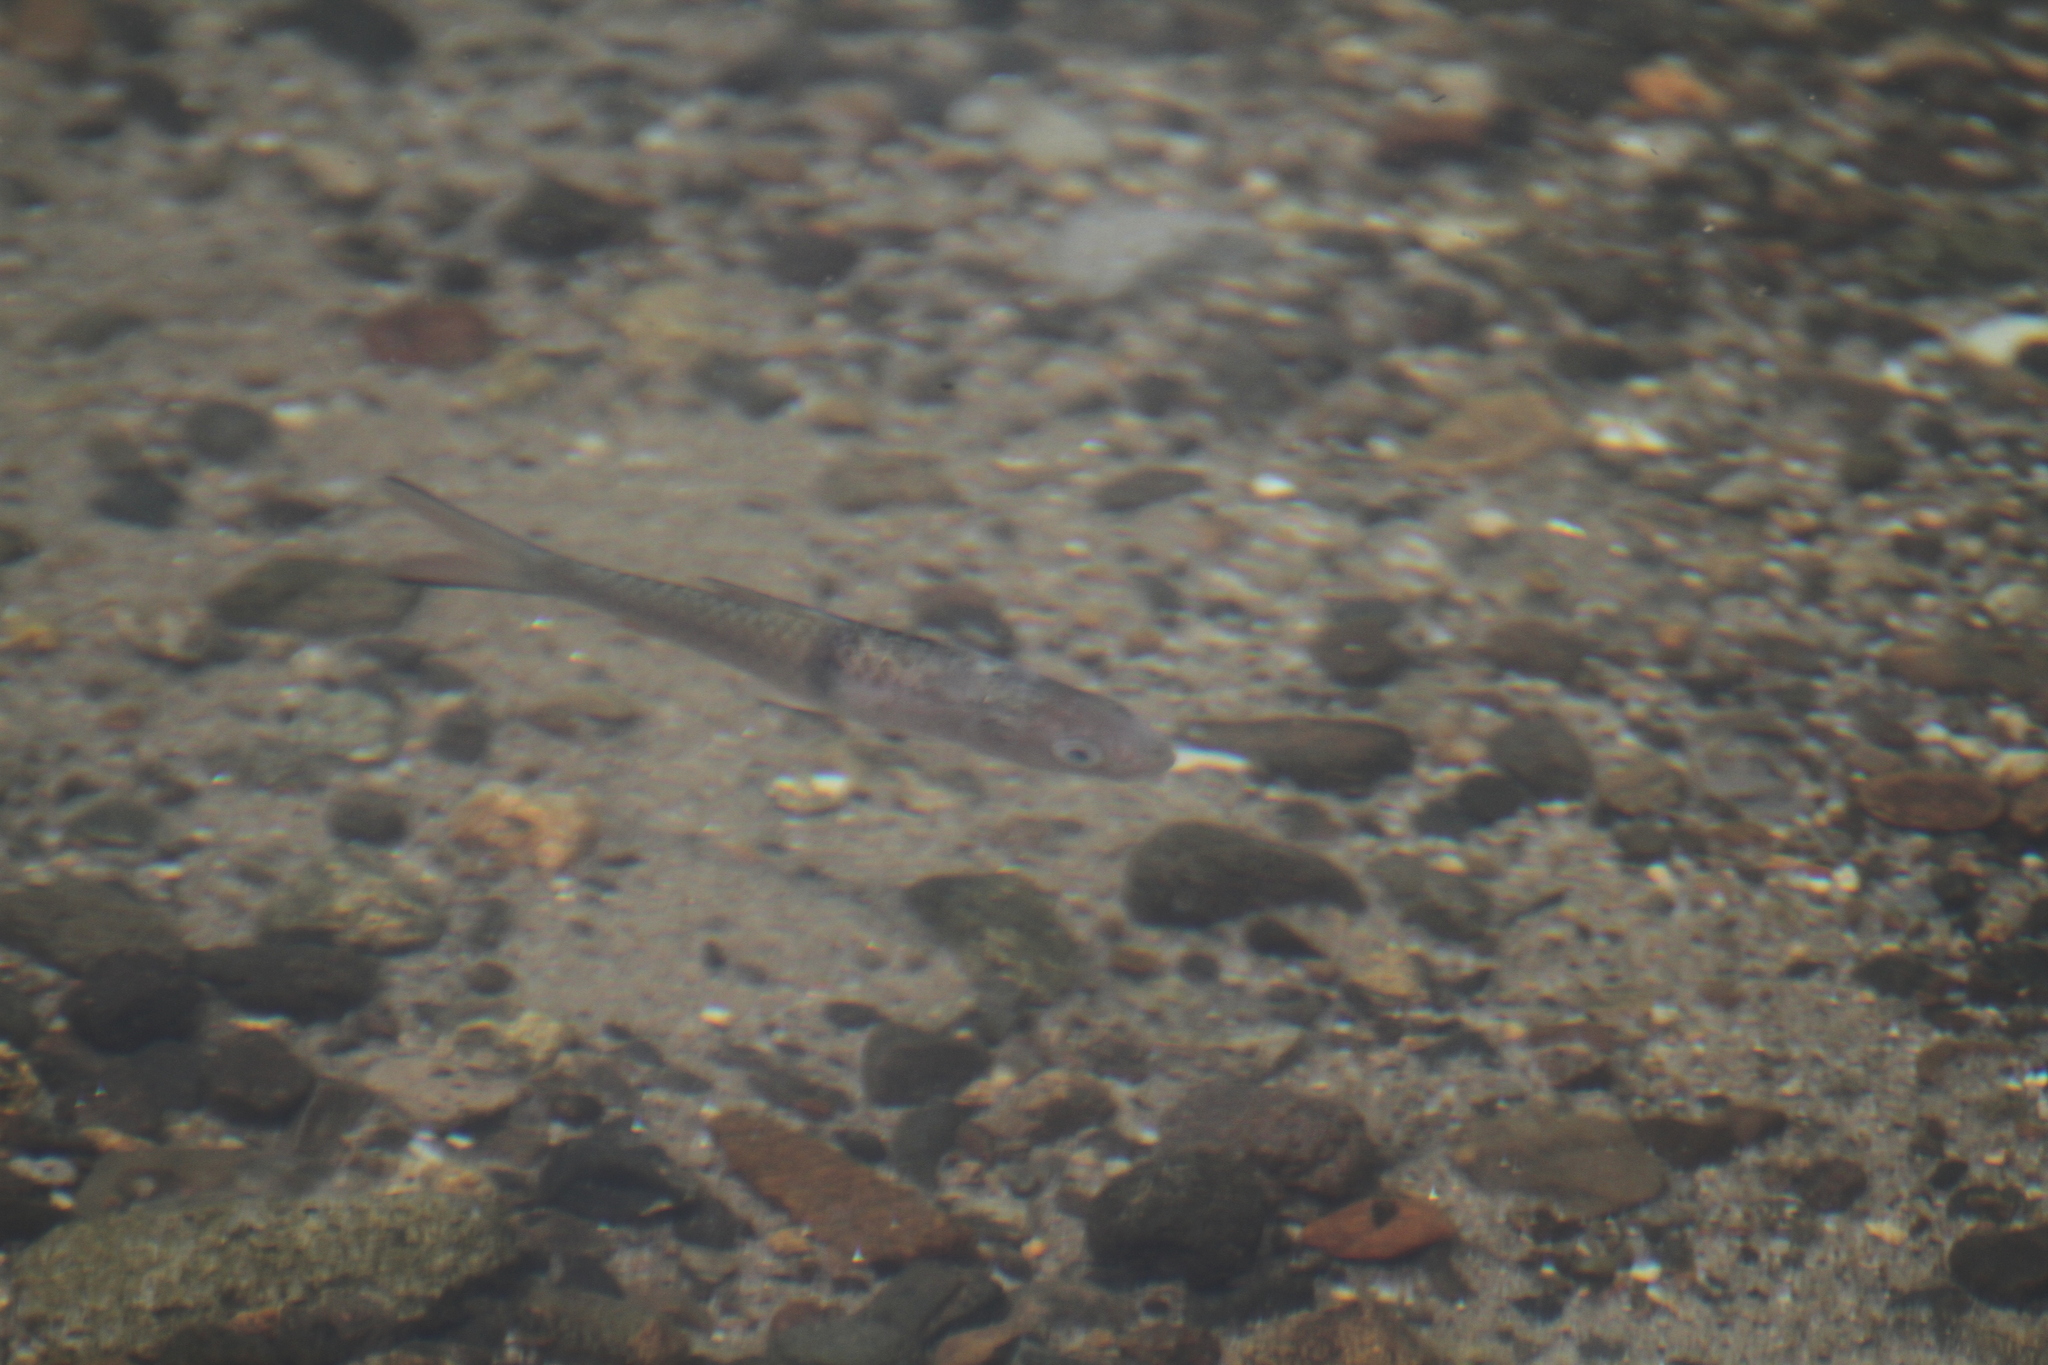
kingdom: Animalia
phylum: Chordata
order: Cypriniformes
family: Cyprinidae
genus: Hampala
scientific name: Hampala macrolepidota
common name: Hampala barb
